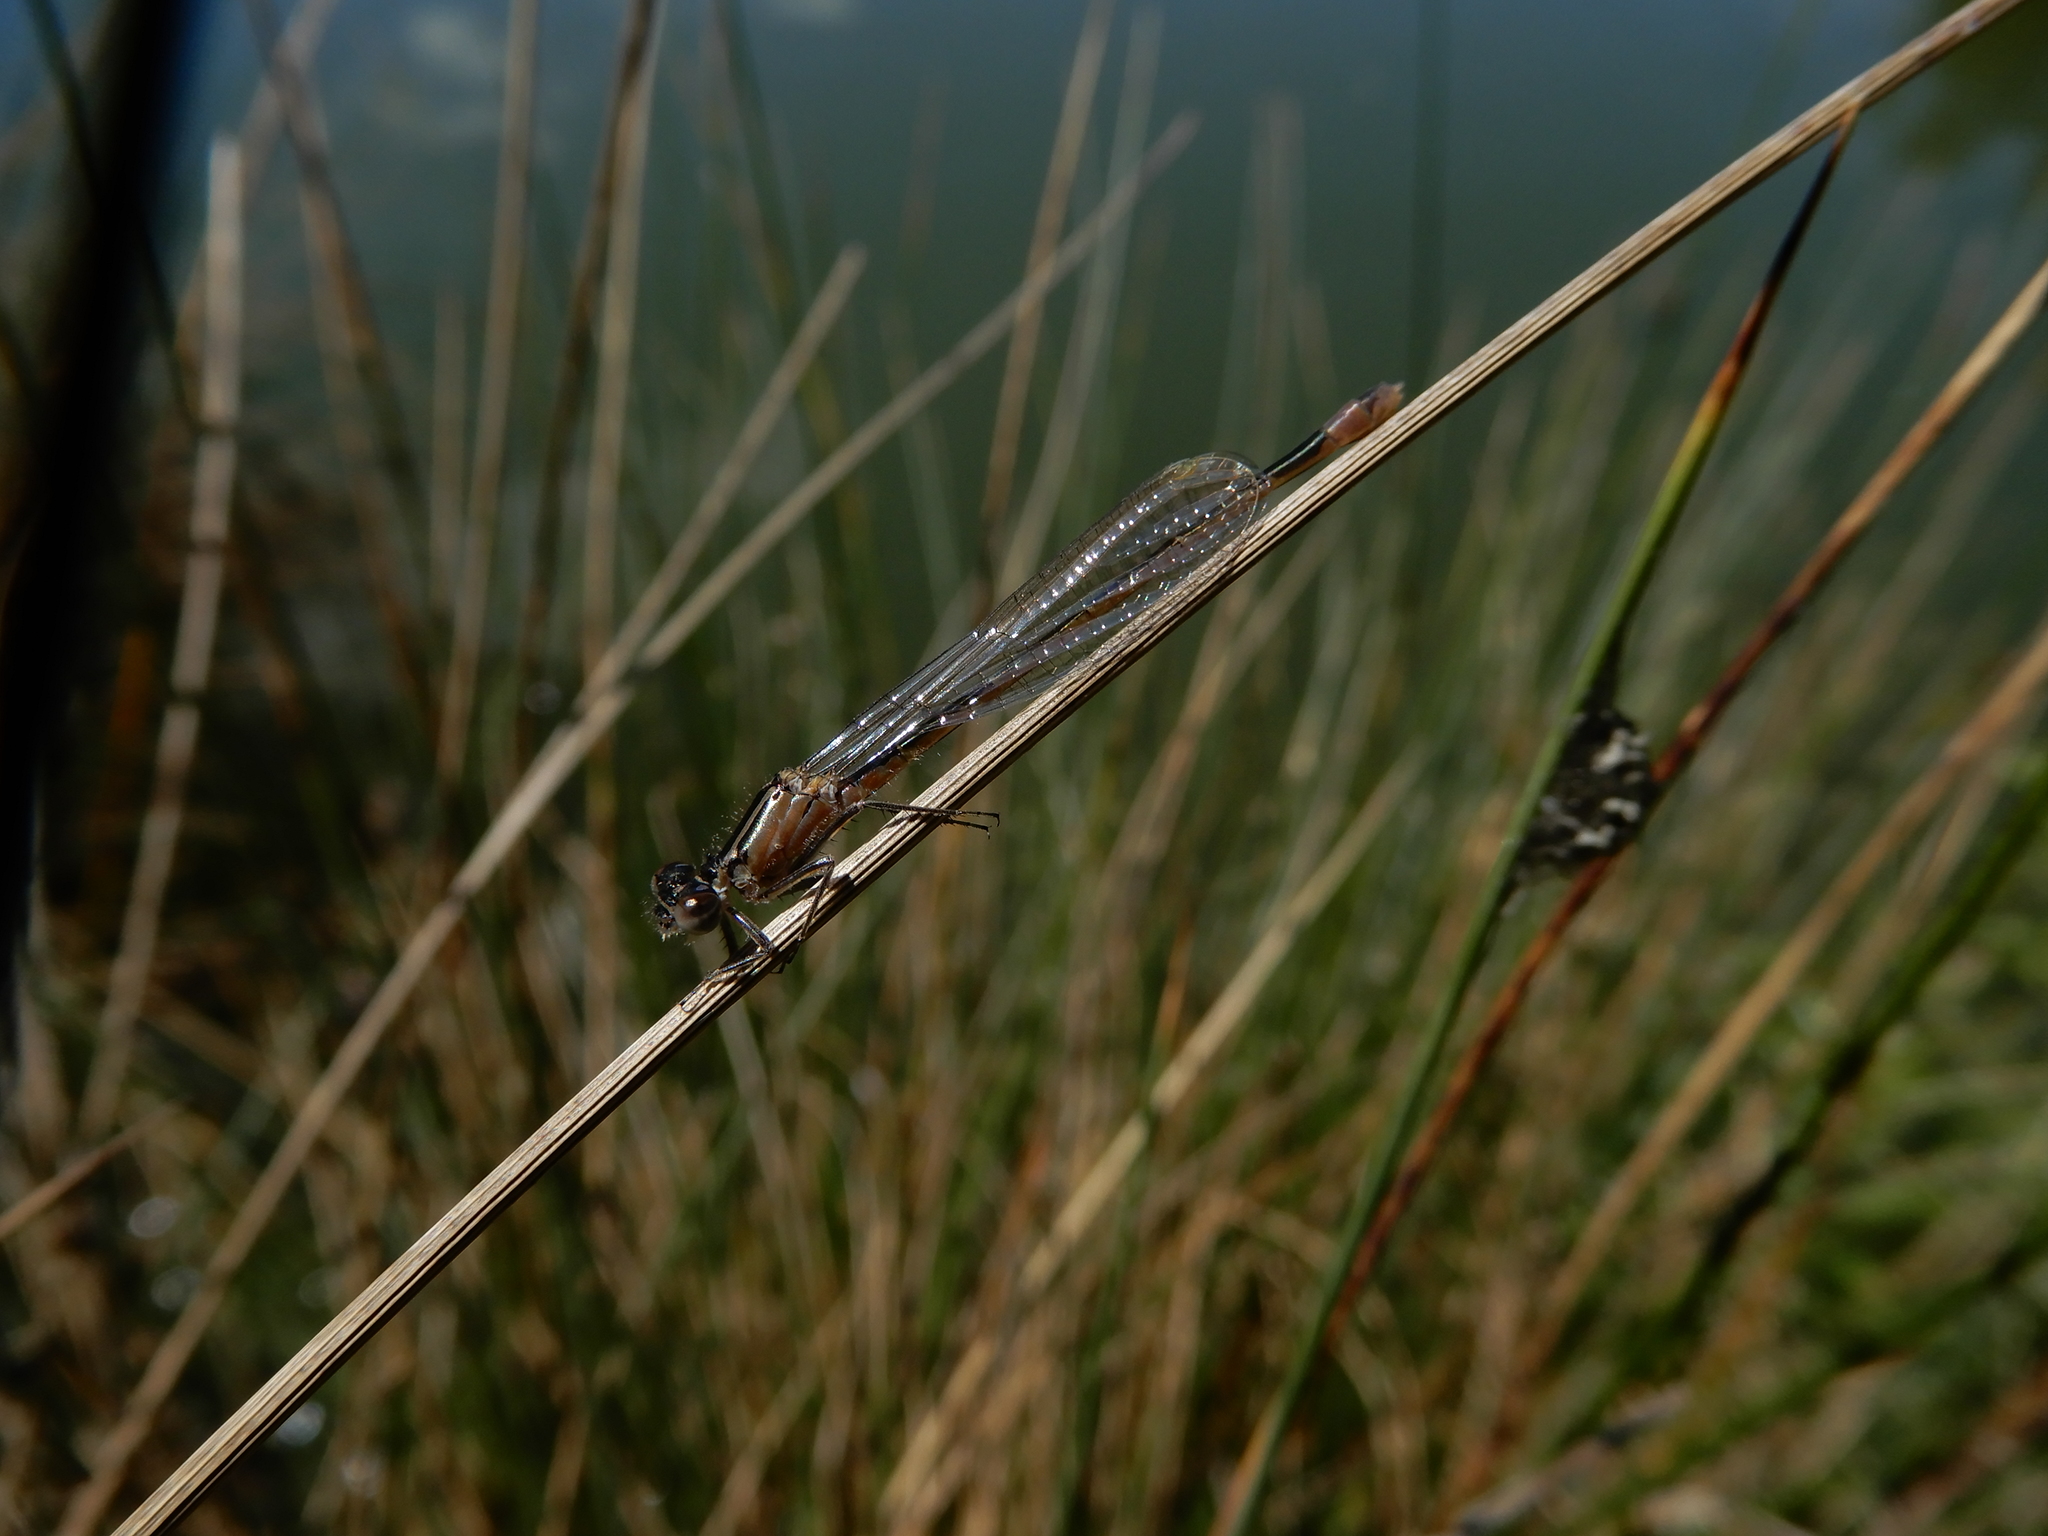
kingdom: Animalia
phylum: Arthropoda
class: Insecta
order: Odonata
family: Coenagrionidae
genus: Ischnura
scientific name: Ischnura elegans
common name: Blue-tailed damselfly
